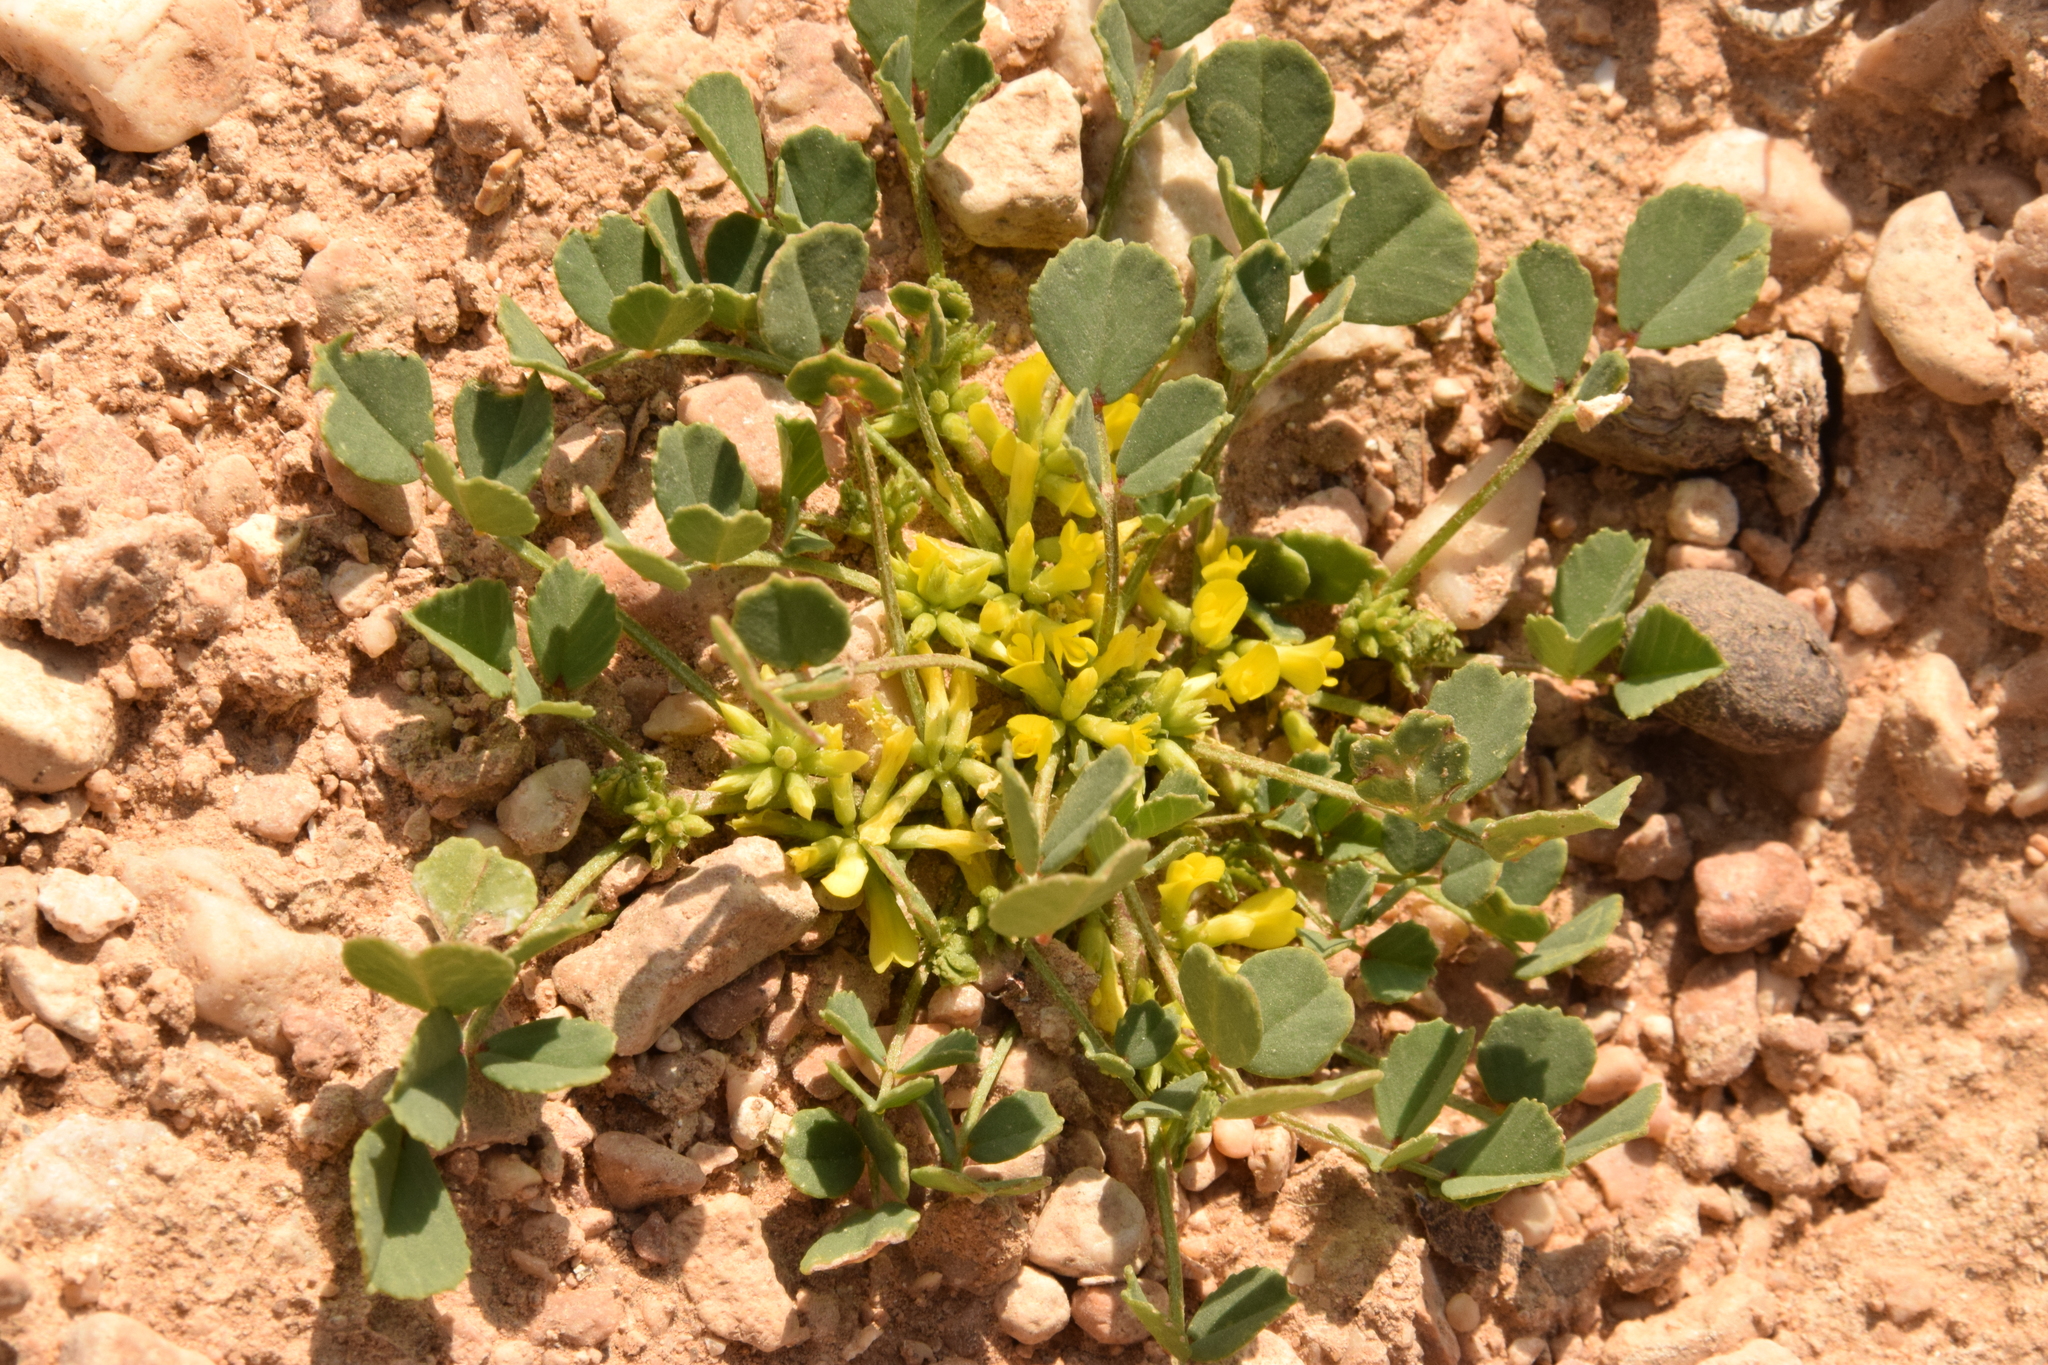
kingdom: Plantae
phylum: Tracheophyta
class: Magnoliopsida
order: Fabales
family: Fabaceae
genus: Trigonella
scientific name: Trigonella stellata
